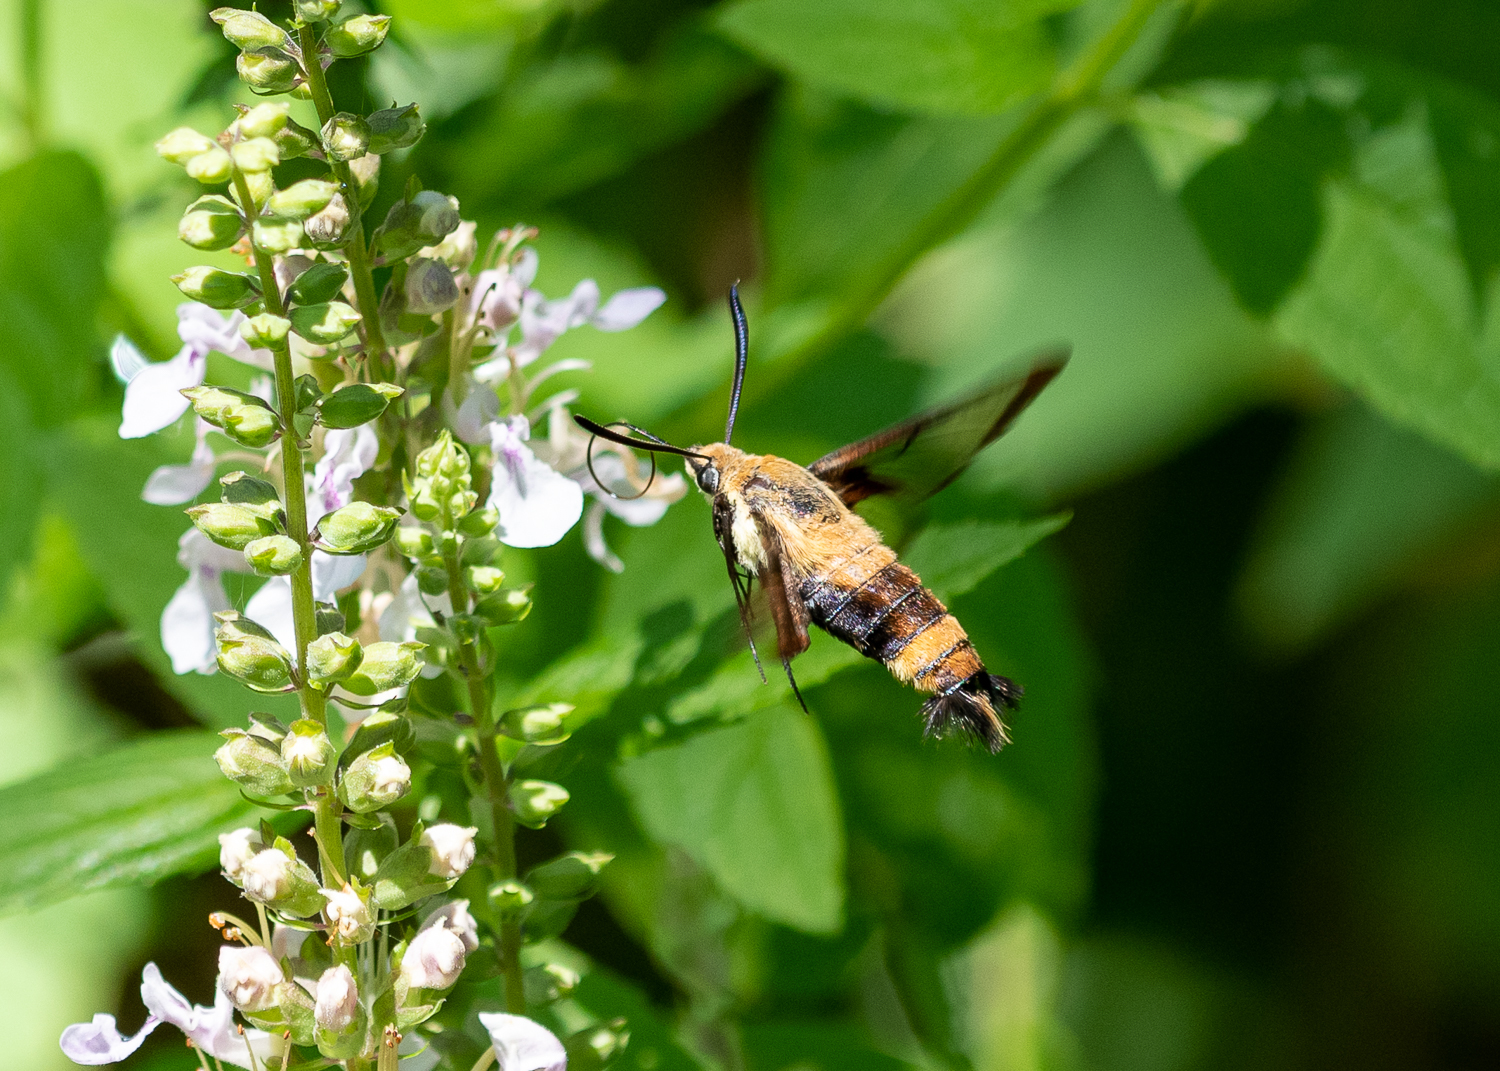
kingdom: Animalia
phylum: Arthropoda
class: Insecta
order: Lepidoptera
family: Sphingidae
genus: Hemaris
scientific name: Hemaris diffinis
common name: Bumblebee moth
